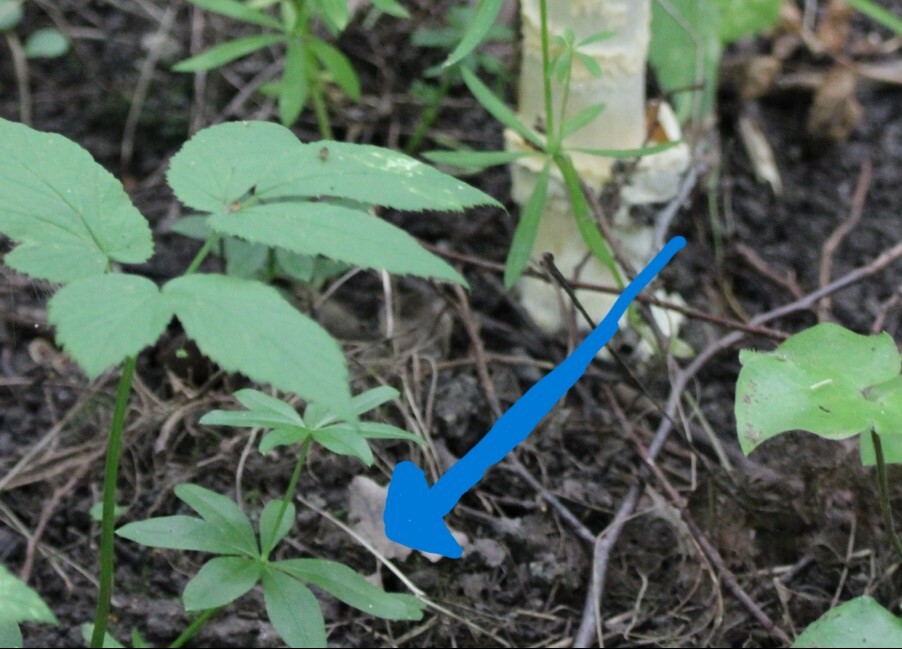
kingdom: Plantae
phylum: Tracheophyta
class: Magnoliopsida
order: Gentianales
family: Rubiaceae
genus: Galium
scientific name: Galium odoratum
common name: Sweet woodruff
